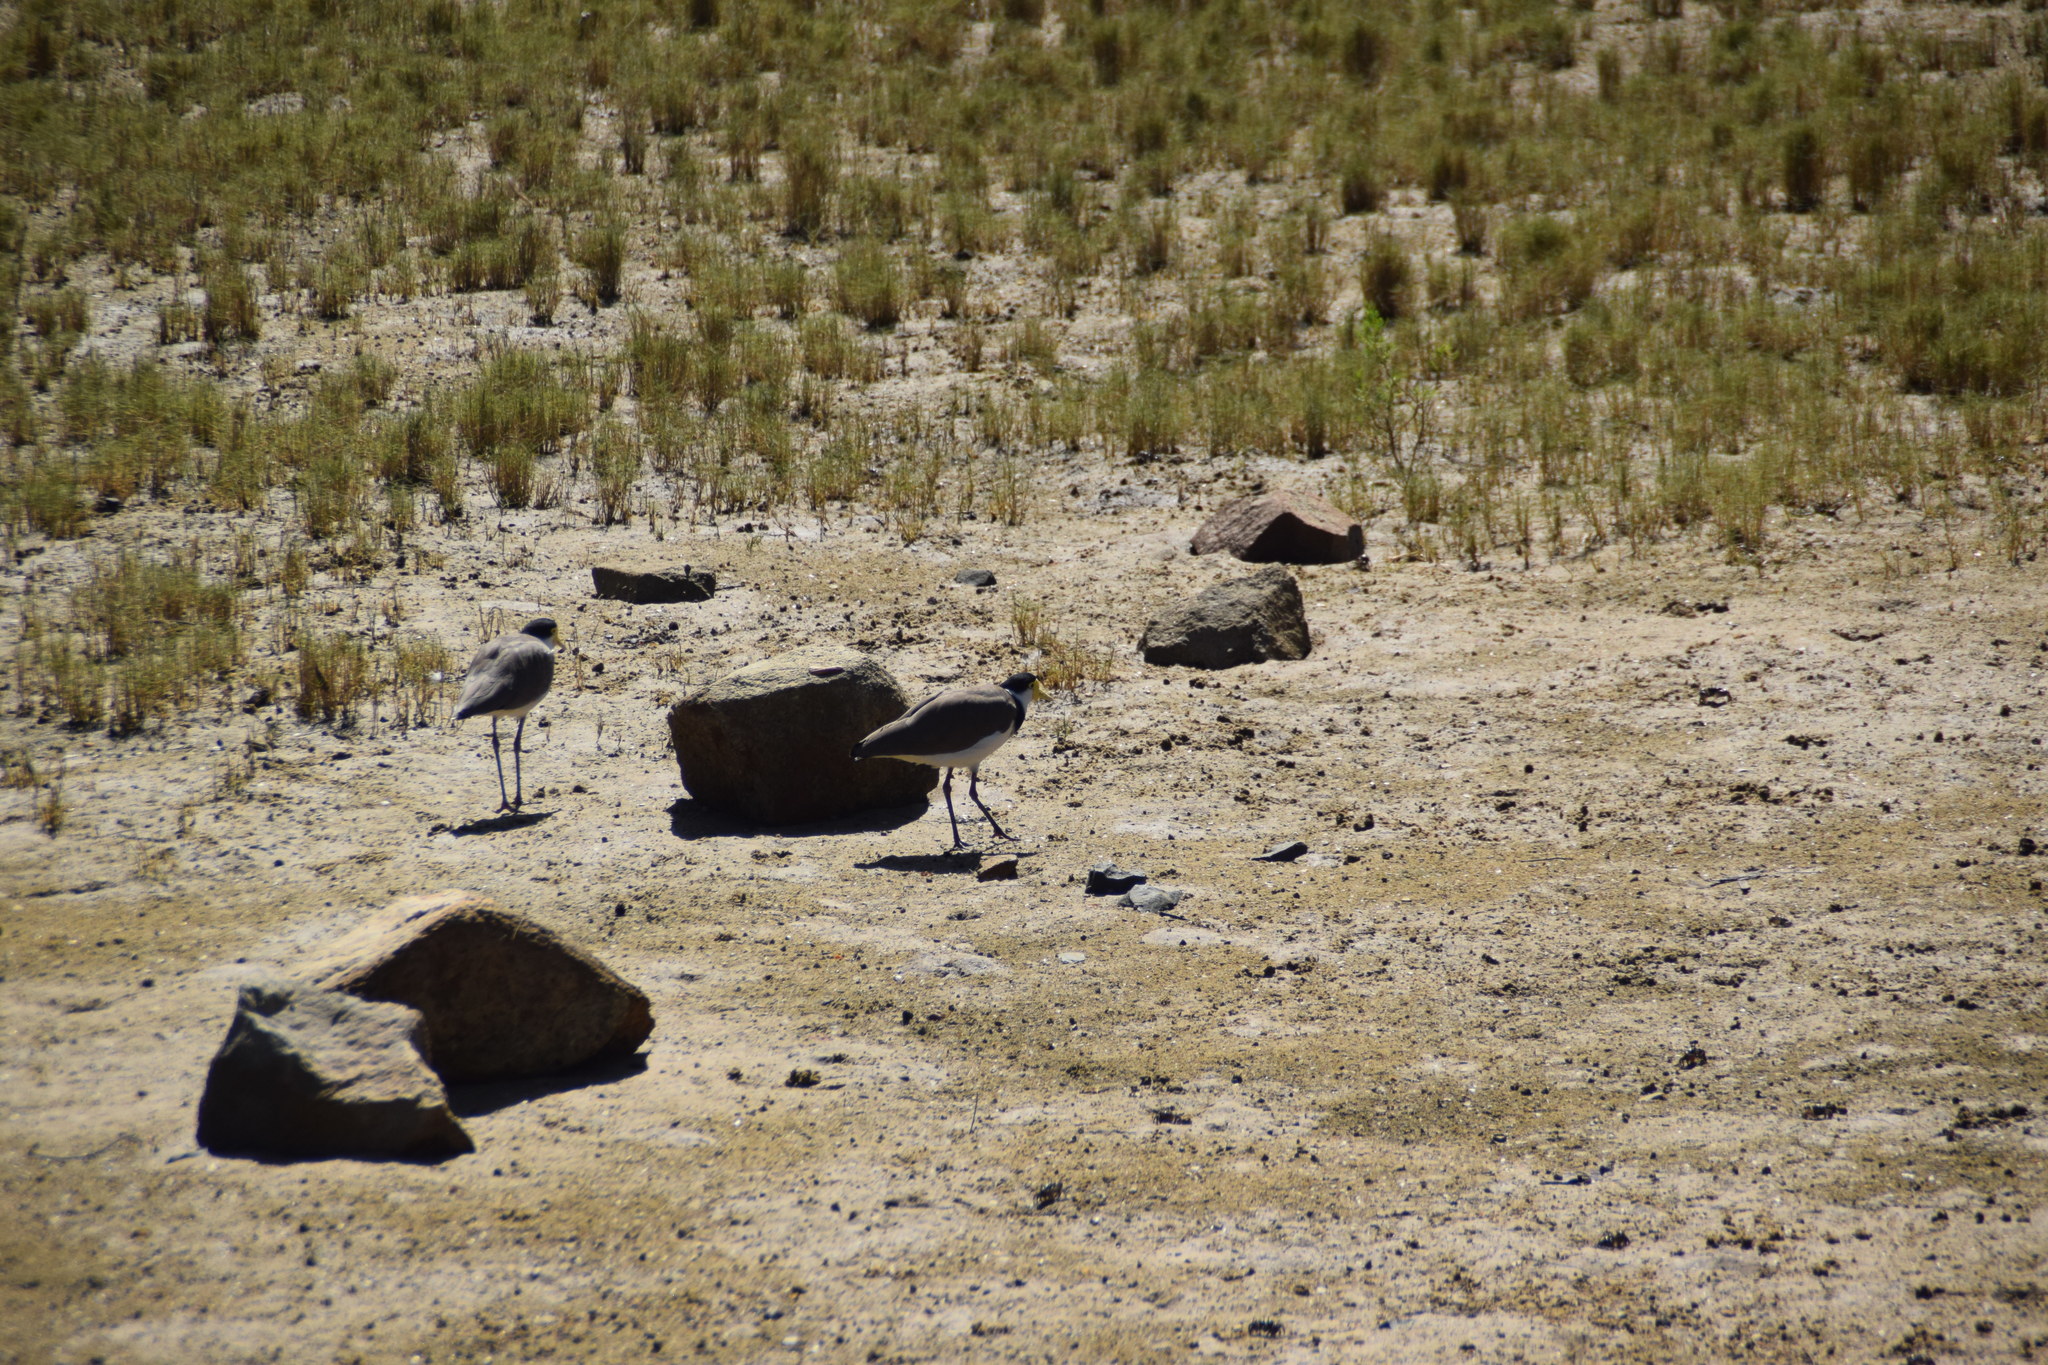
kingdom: Animalia
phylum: Chordata
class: Aves
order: Charadriiformes
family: Charadriidae
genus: Vanellus
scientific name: Vanellus miles
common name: Masked lapwing
